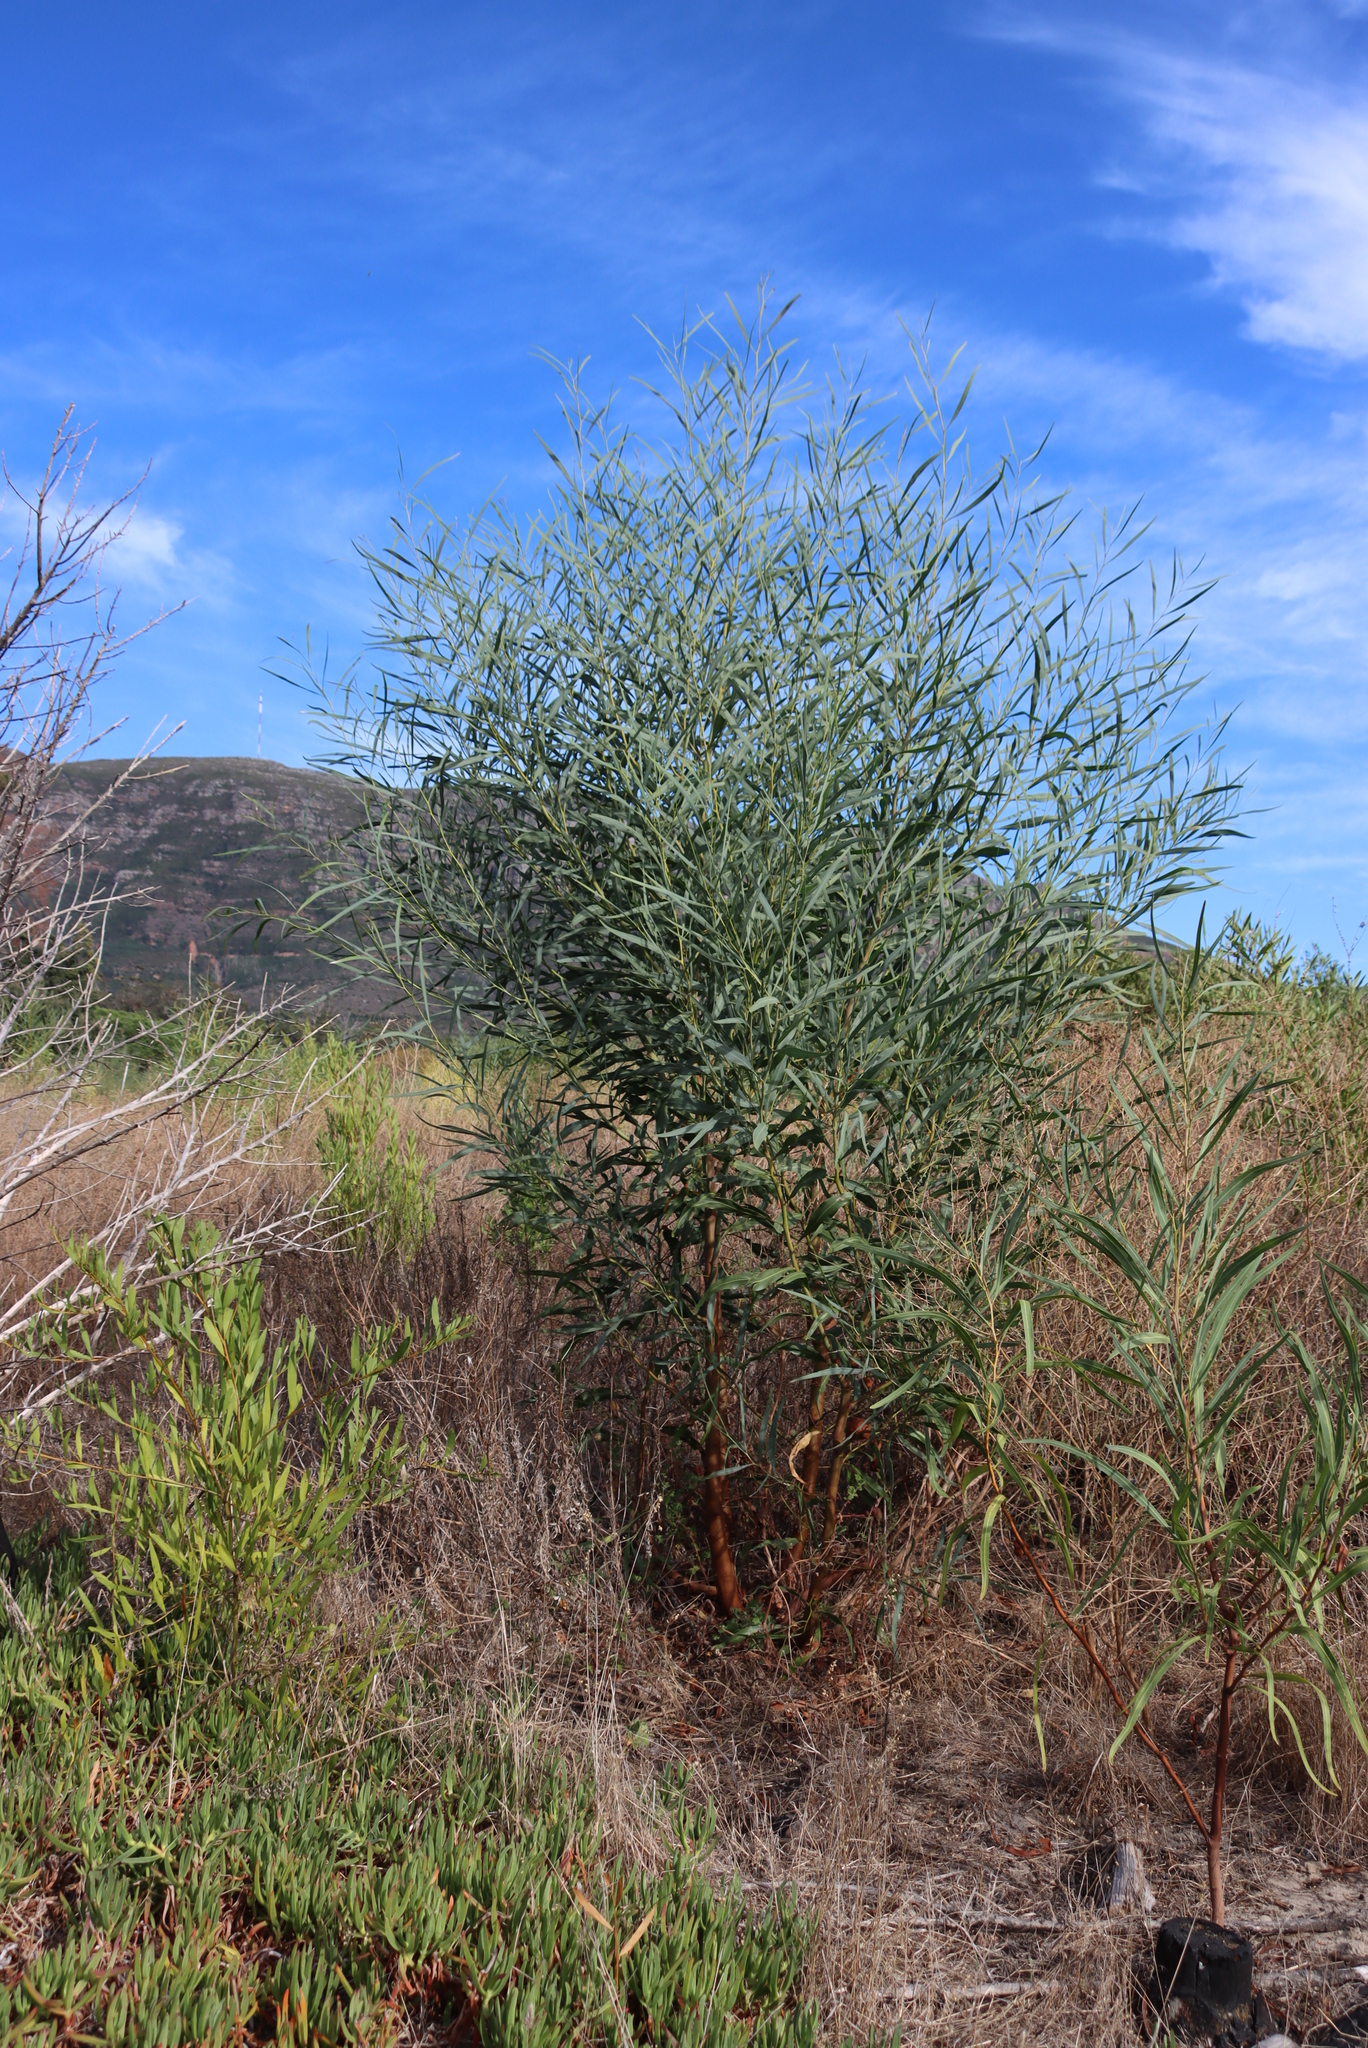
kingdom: Plantae
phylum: Tracheophyta
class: Magnoliopsida
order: Fabales
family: Fabaceae
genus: Acacia
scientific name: Acacia saligna
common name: Orange wattle
